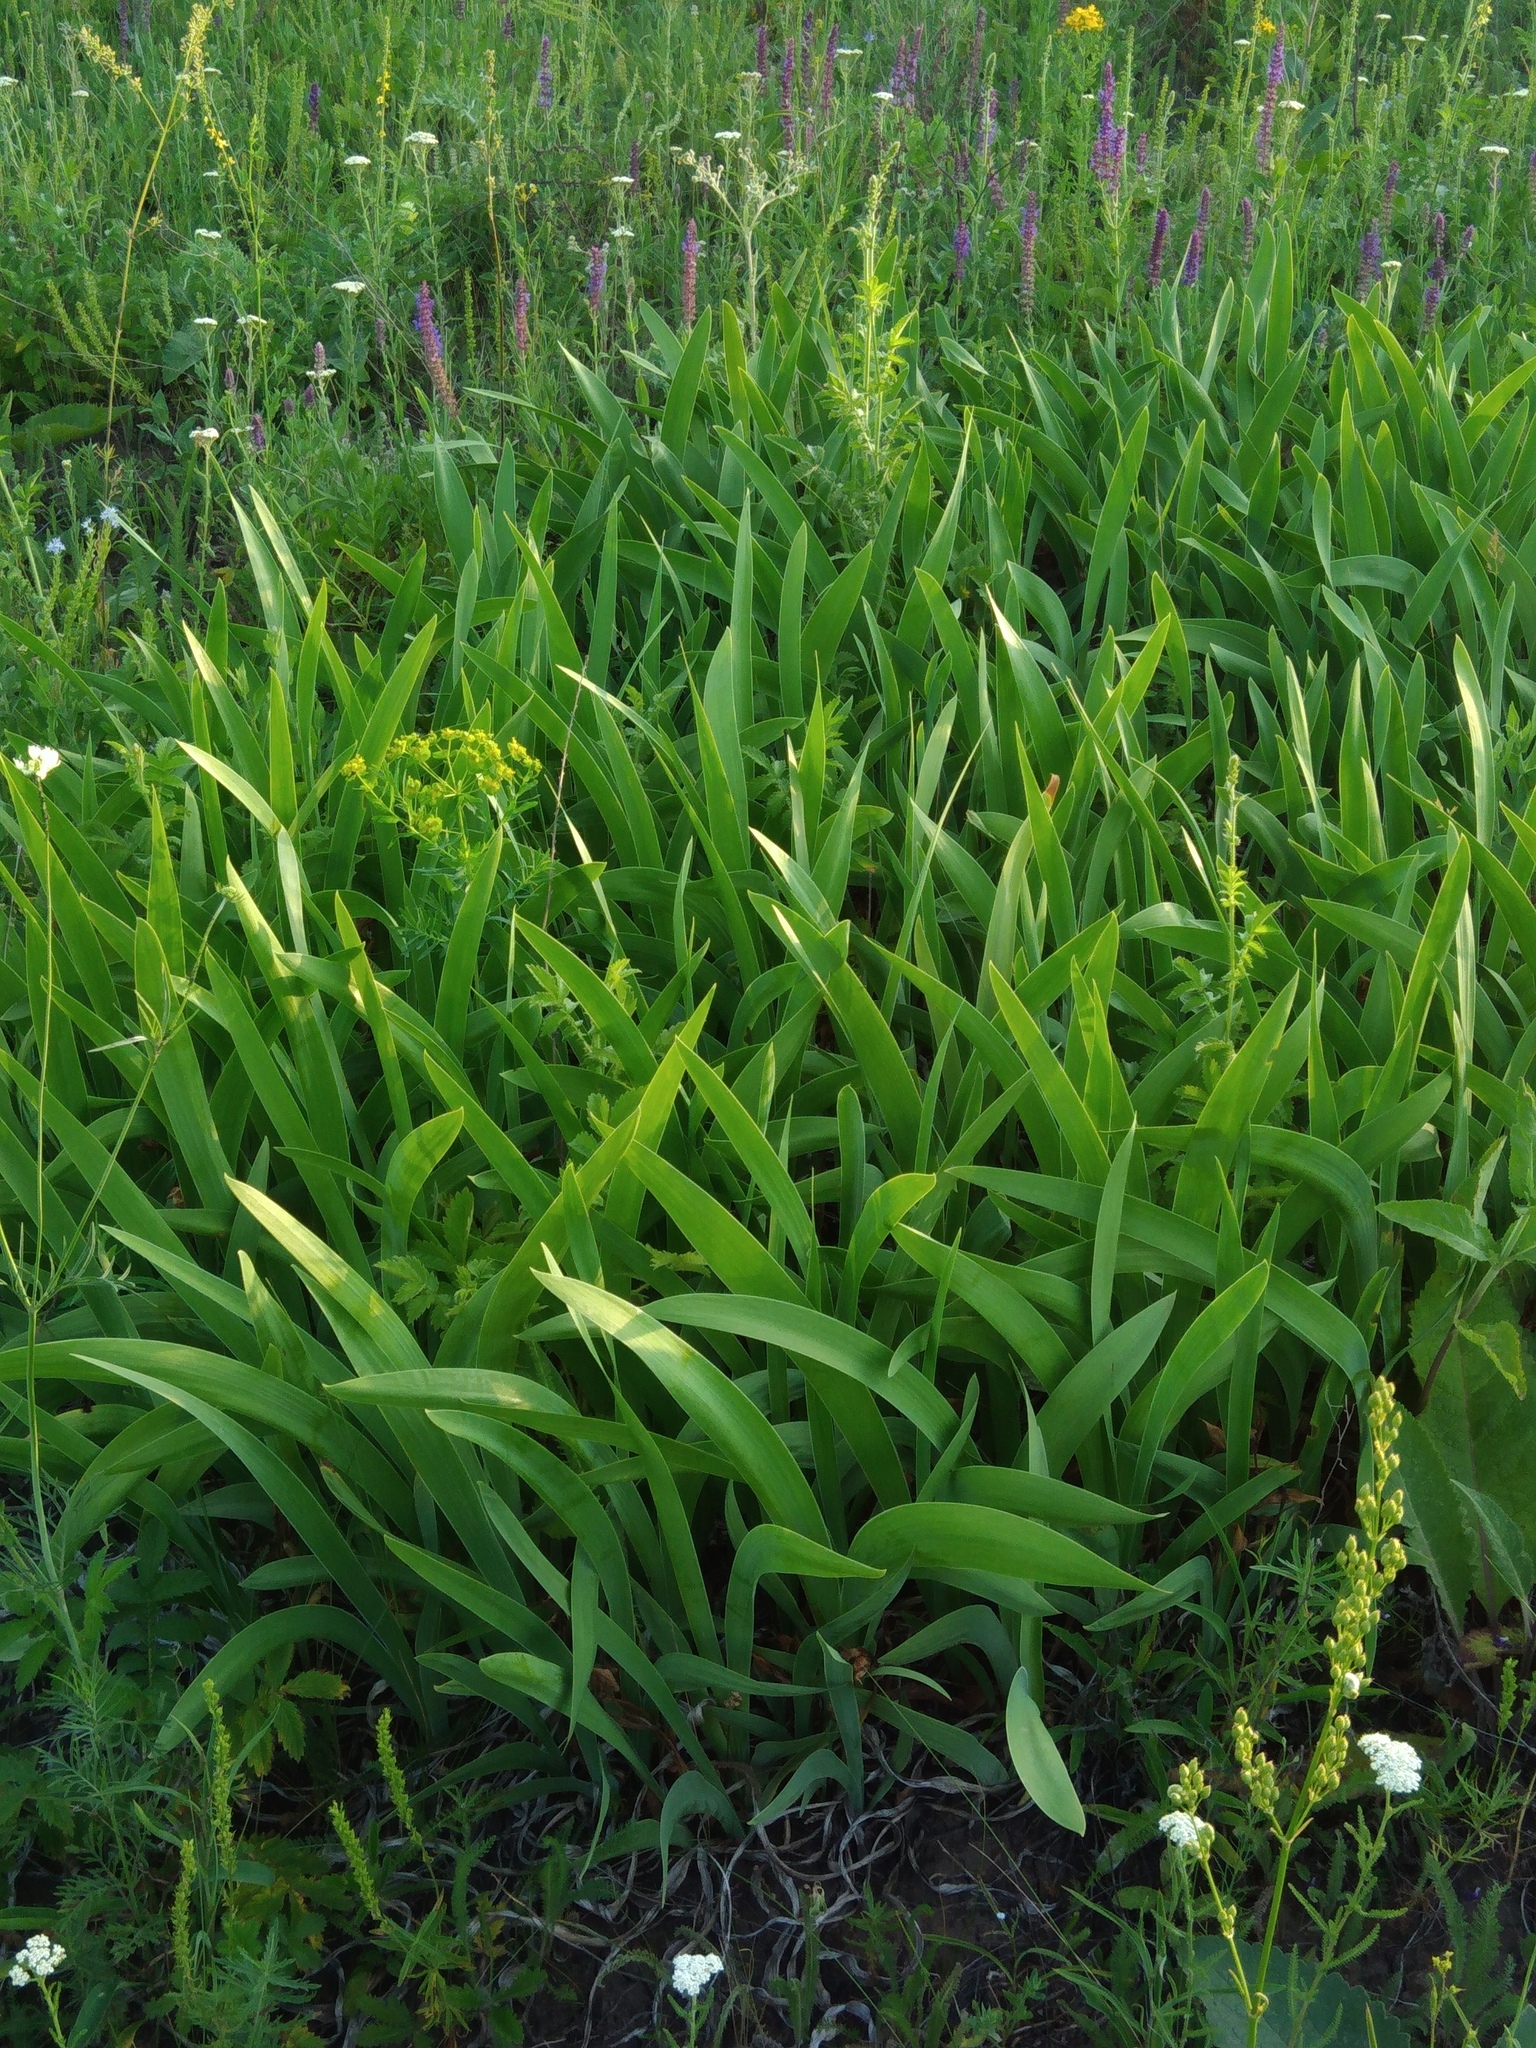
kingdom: Plantae
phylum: Tracheophyta
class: Liliopsida
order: Asparagales
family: Iridaceae
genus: Iris
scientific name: Iris aphylla
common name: Stool iris
